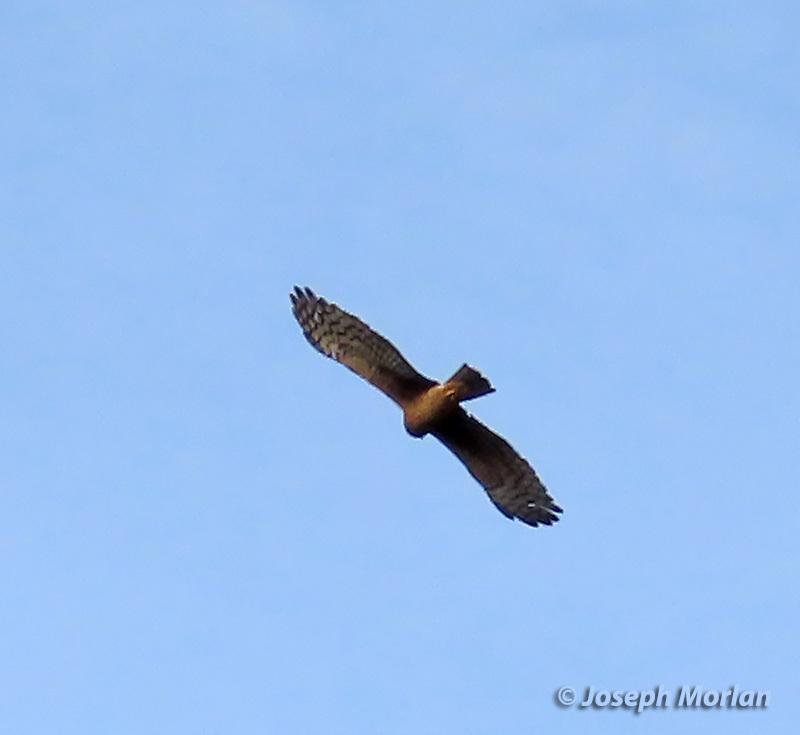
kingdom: Animalia
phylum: Chordata
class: Aves
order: Accipitriformes
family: Accipitridae
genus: Circus
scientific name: Circus cyaneus
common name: Hen harrier
